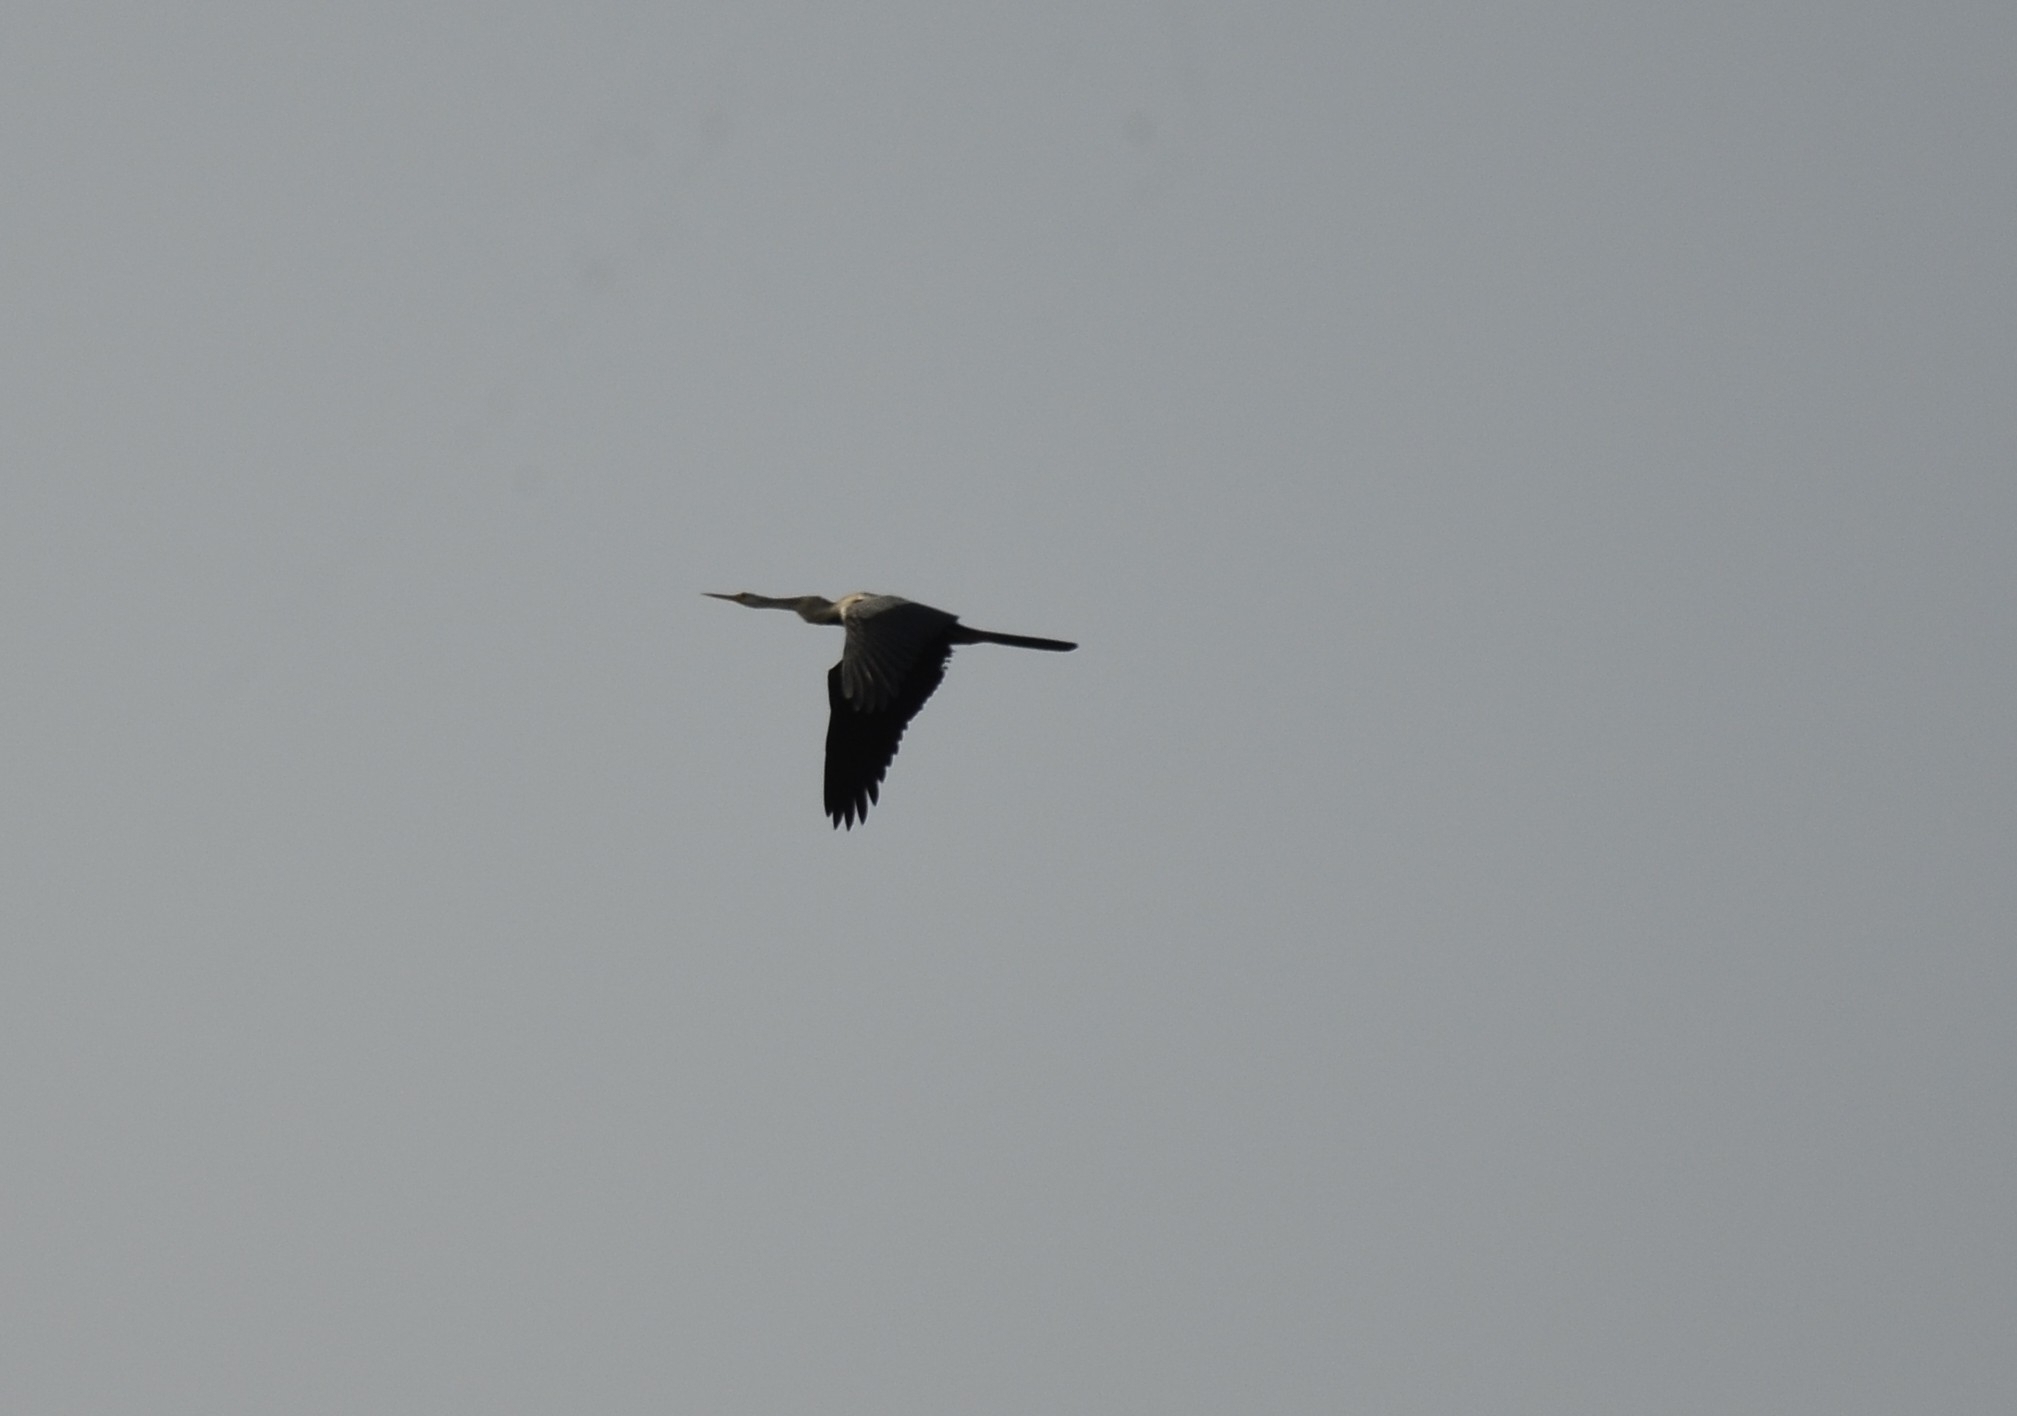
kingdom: Animalia
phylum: Chordata
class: Aves
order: Suliformes
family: Anhingidae
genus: Anhinga
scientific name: Anhinga melanogaster
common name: Oriental darter
